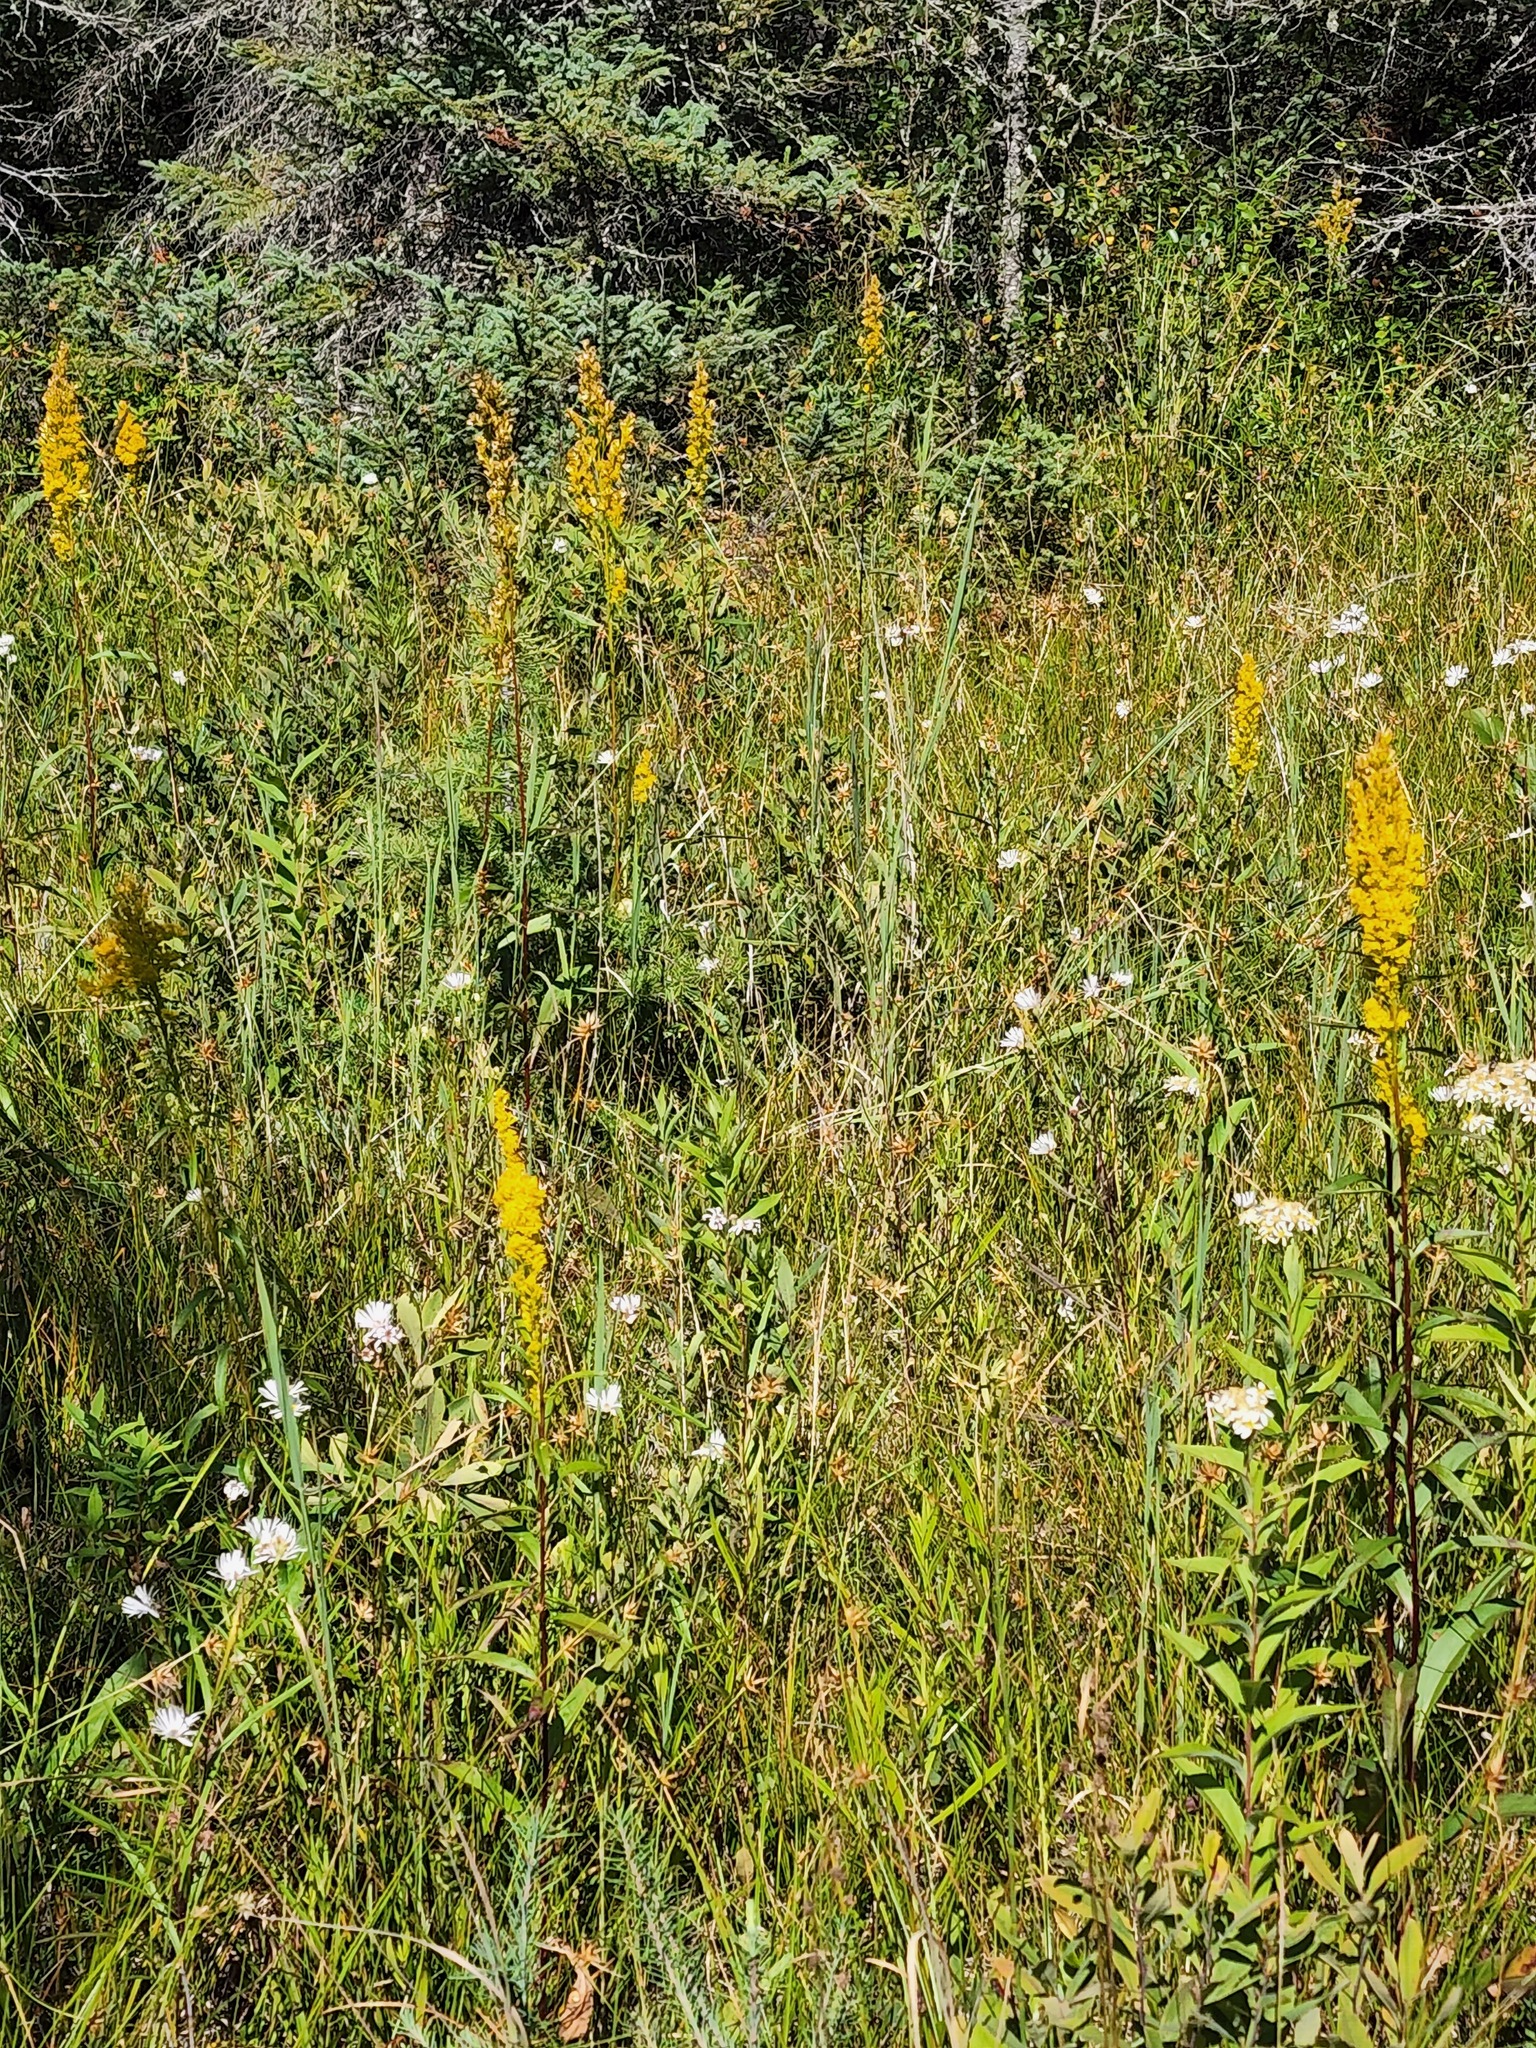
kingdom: Plantae
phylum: Tracheophyta
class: Magnoliopsida
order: Asterales
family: Asteraceae
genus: Solidago
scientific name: Solidago uliginosa
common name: Bog goldenrod
